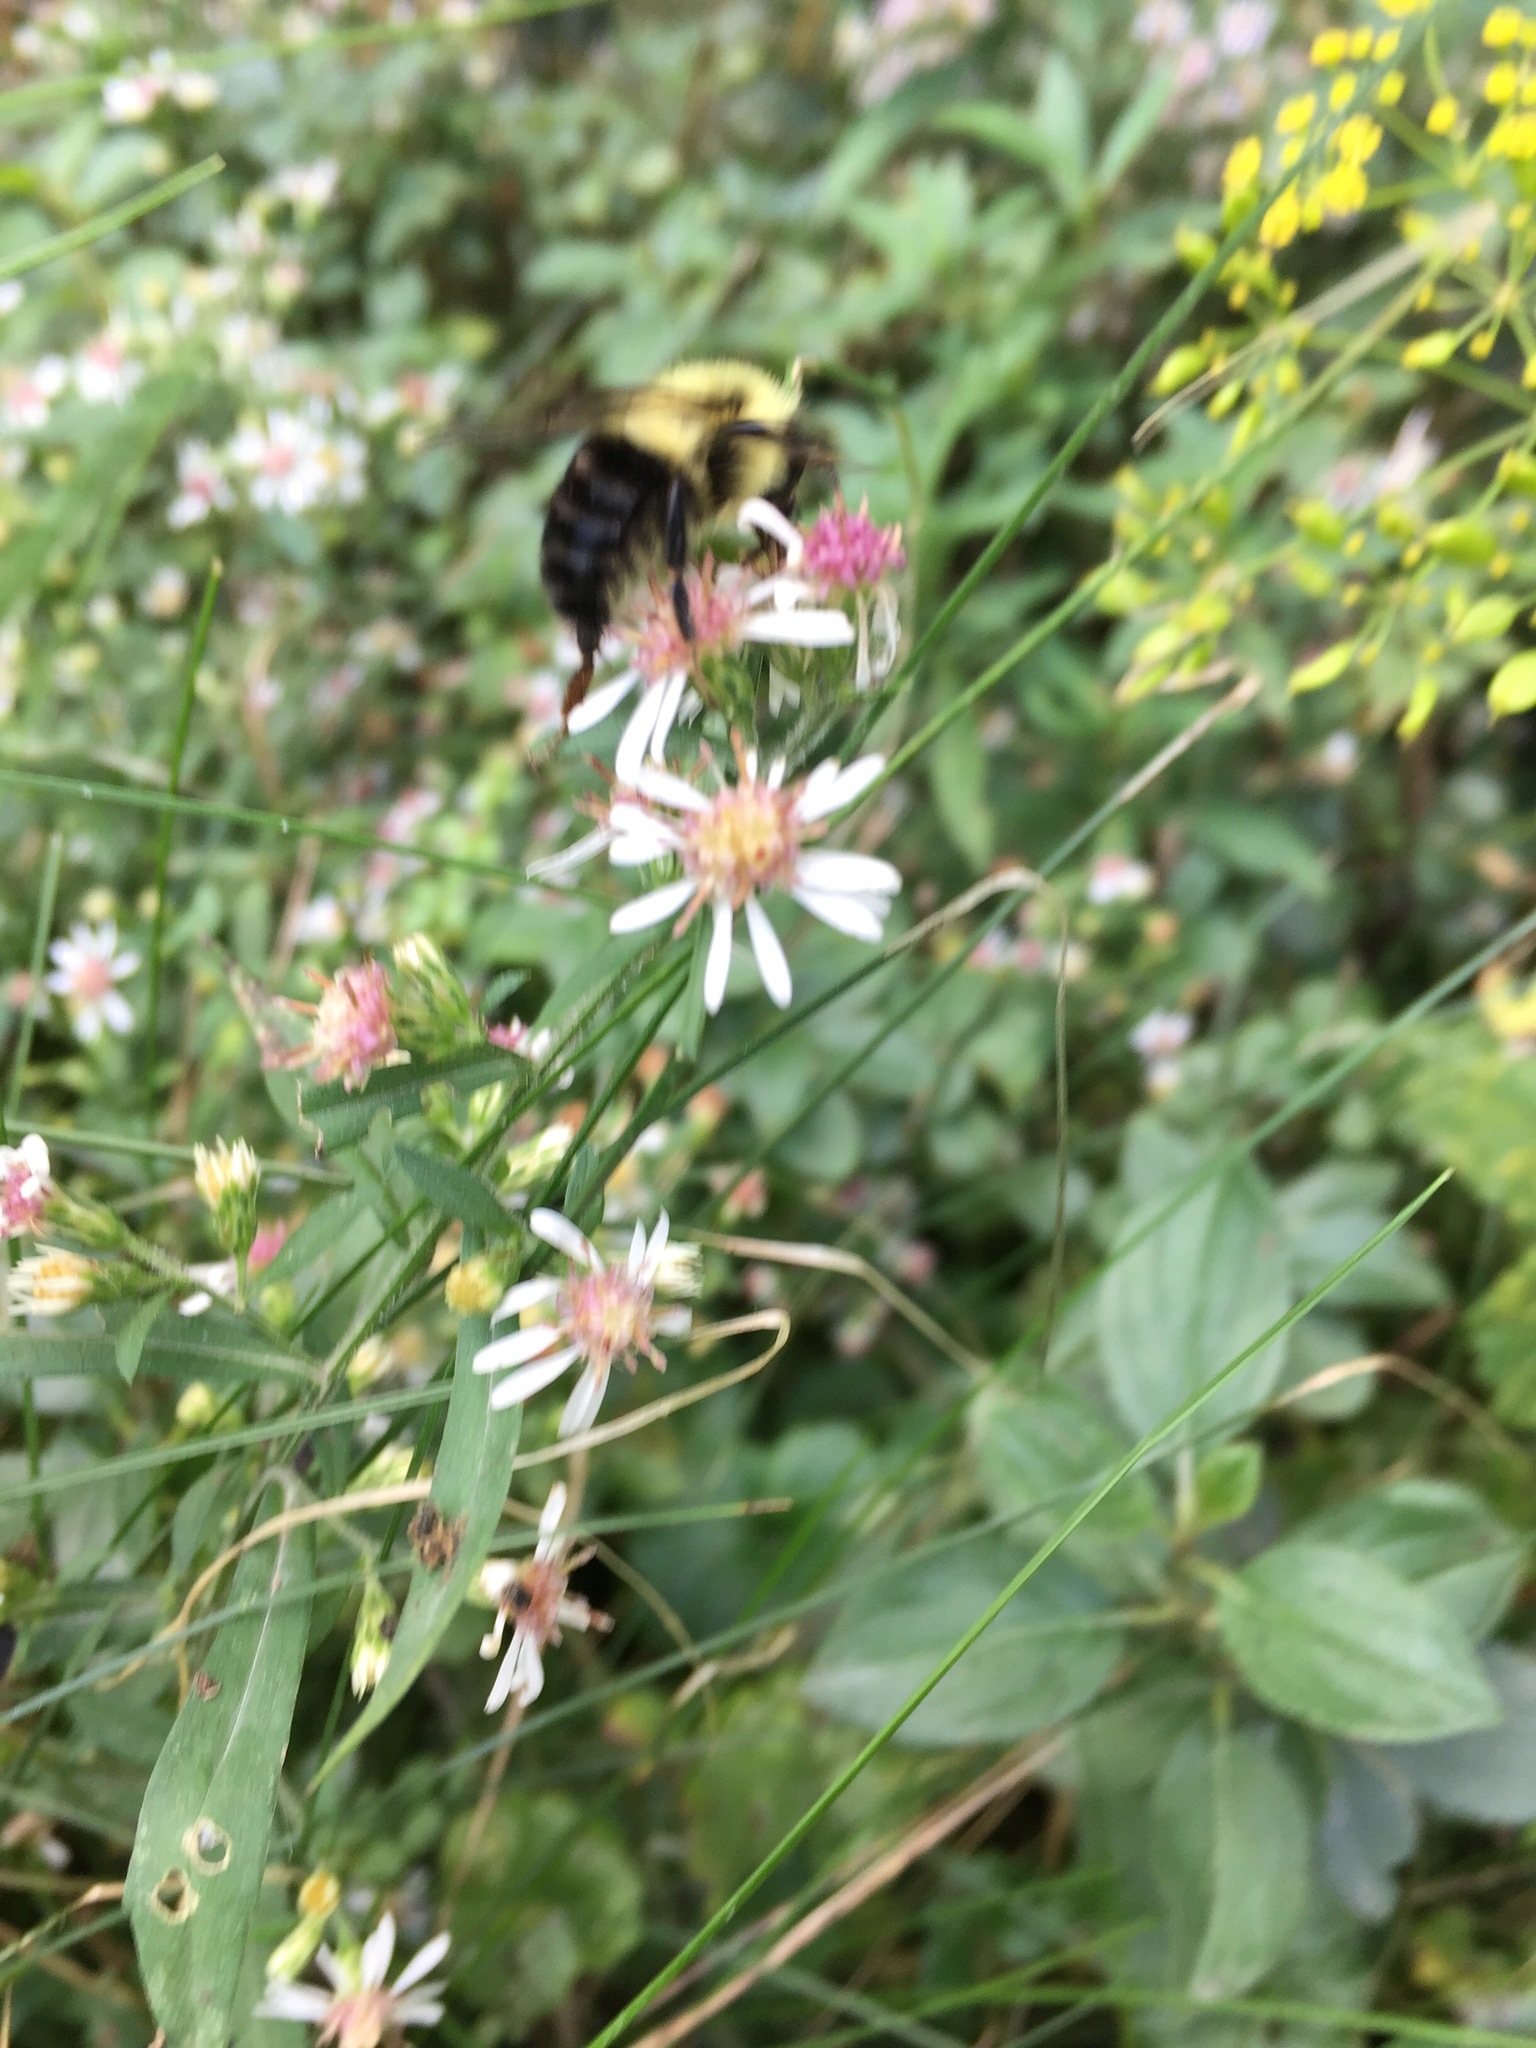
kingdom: Animalia
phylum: Arthropoda
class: Insecta
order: Hymenoptera
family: Apidae
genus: Bombus
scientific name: Bombus impatiens
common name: Common eastern bumble bee
